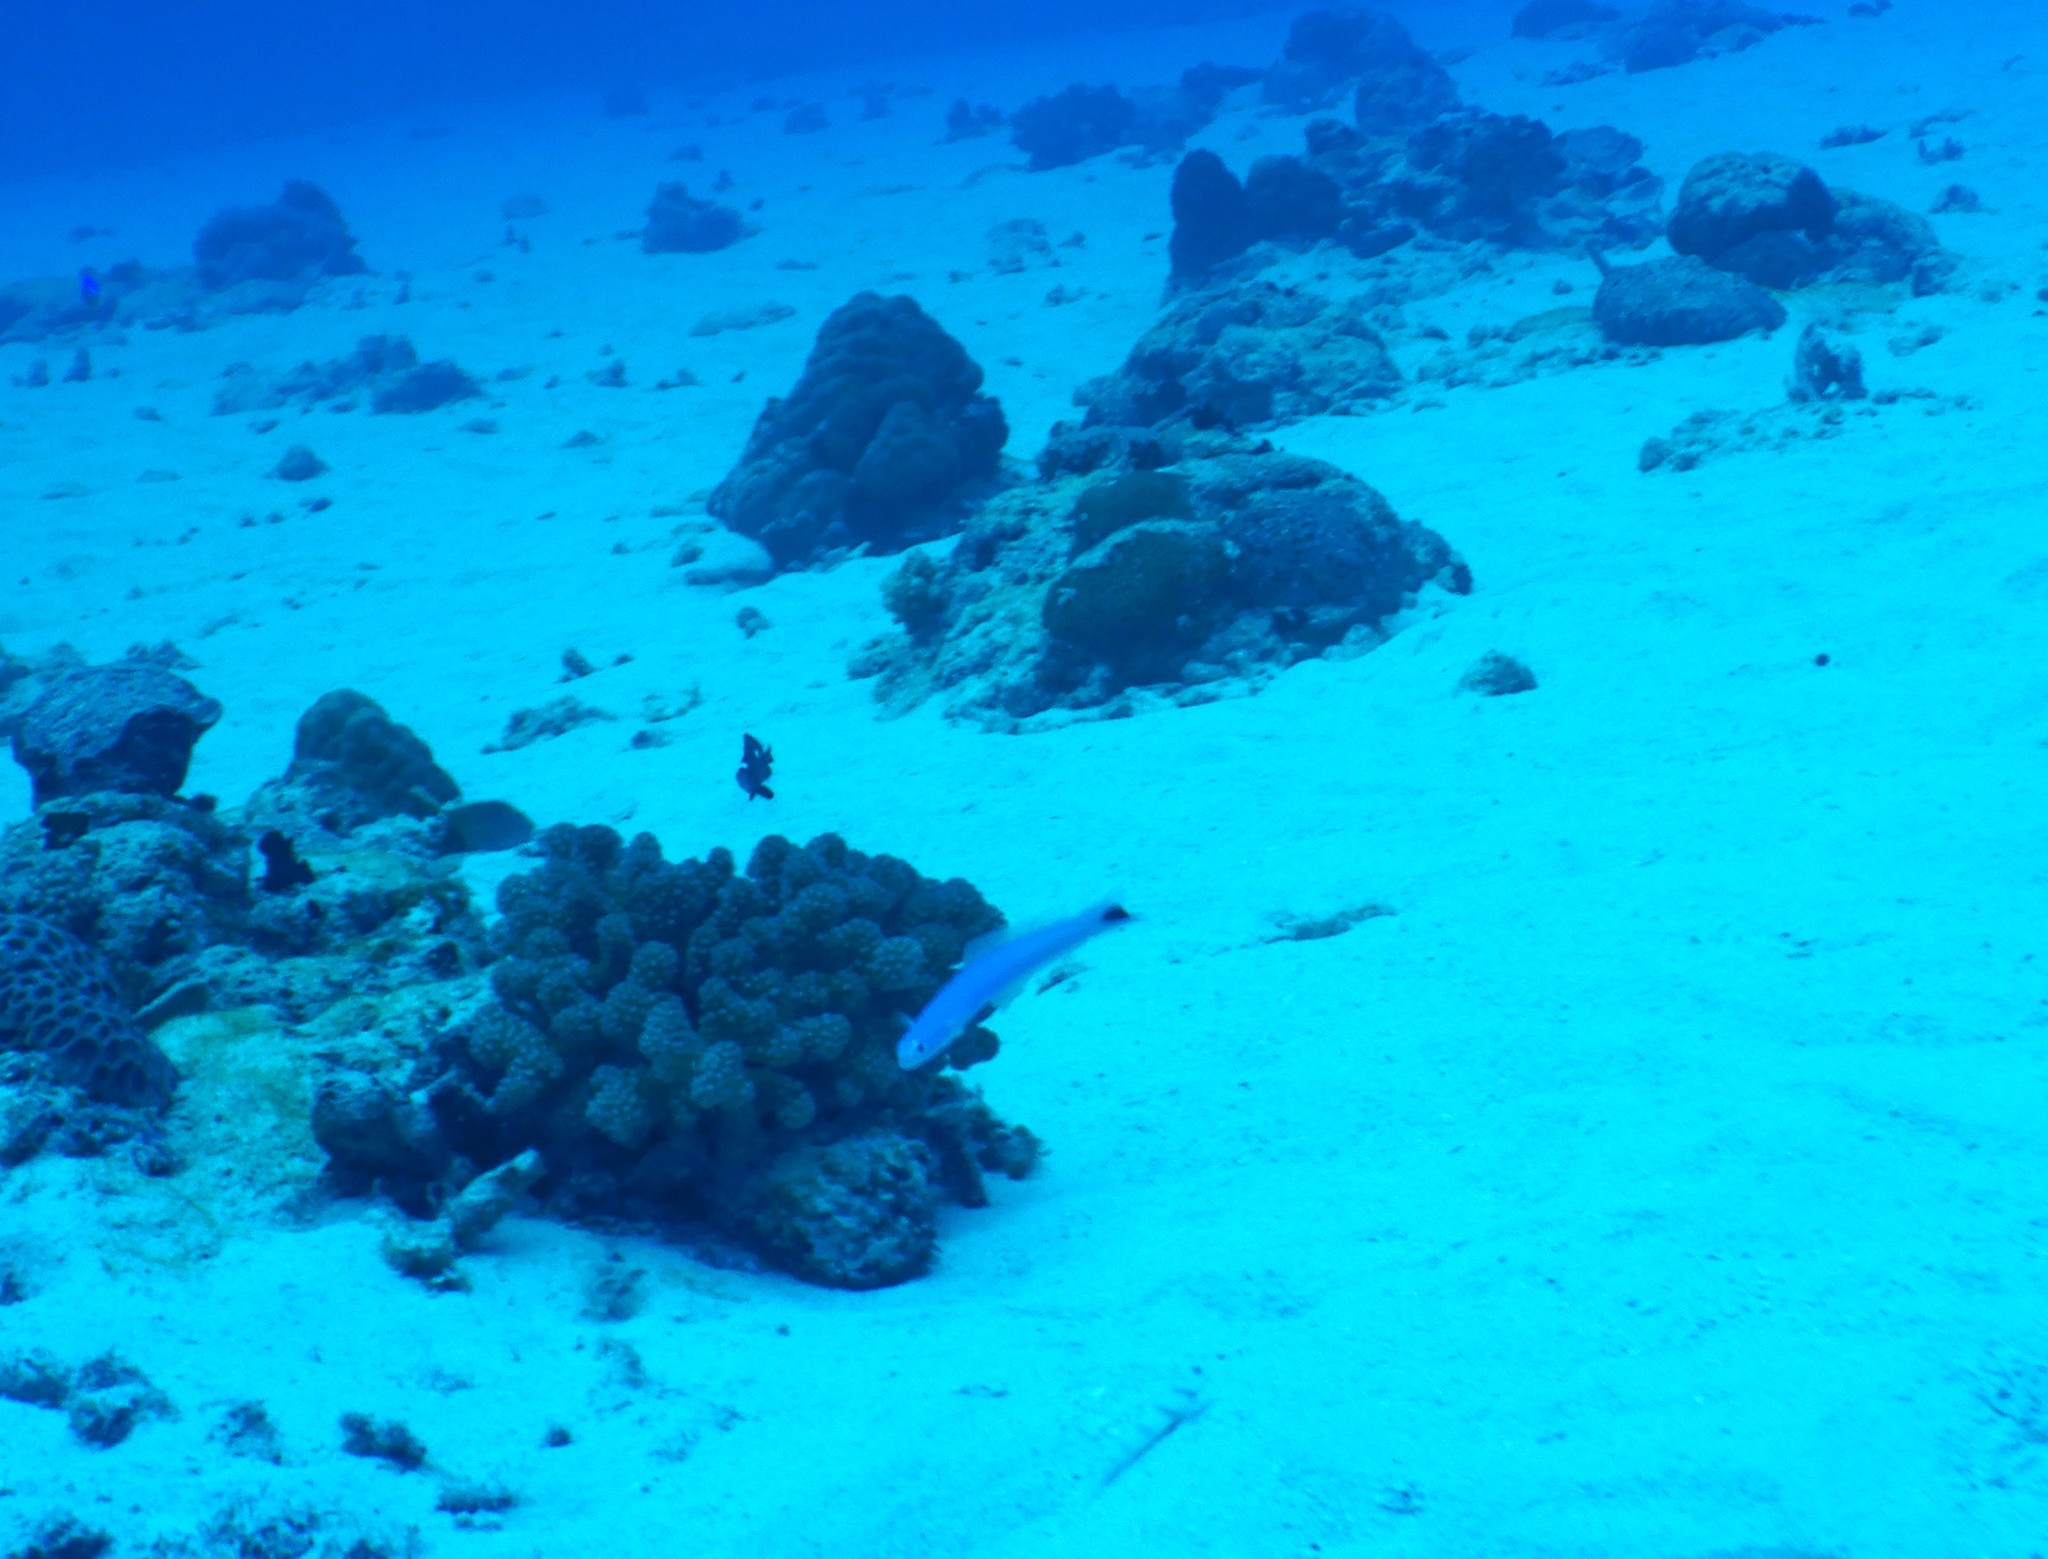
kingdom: Animalia
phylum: Chordata
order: Perciformes
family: Microdesmidae
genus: Ptereleotris
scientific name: Ptereleotris heteroptera
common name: Blacktail goby
